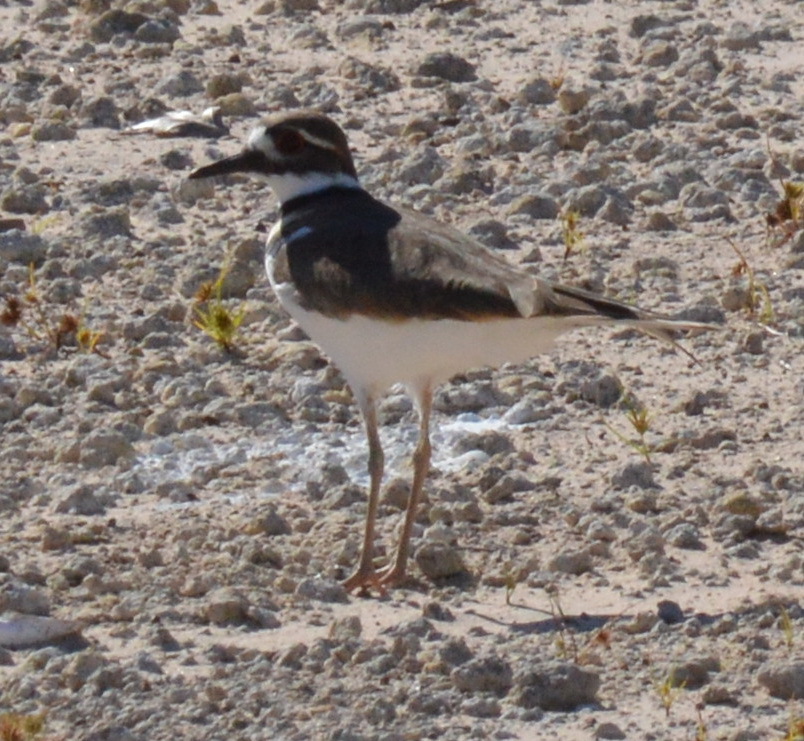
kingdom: Animalia
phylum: Chordata
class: Aves
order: Charadriiformes
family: Charadriidae
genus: Charadrius
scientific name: Charadrius vociferus
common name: Killdeer
